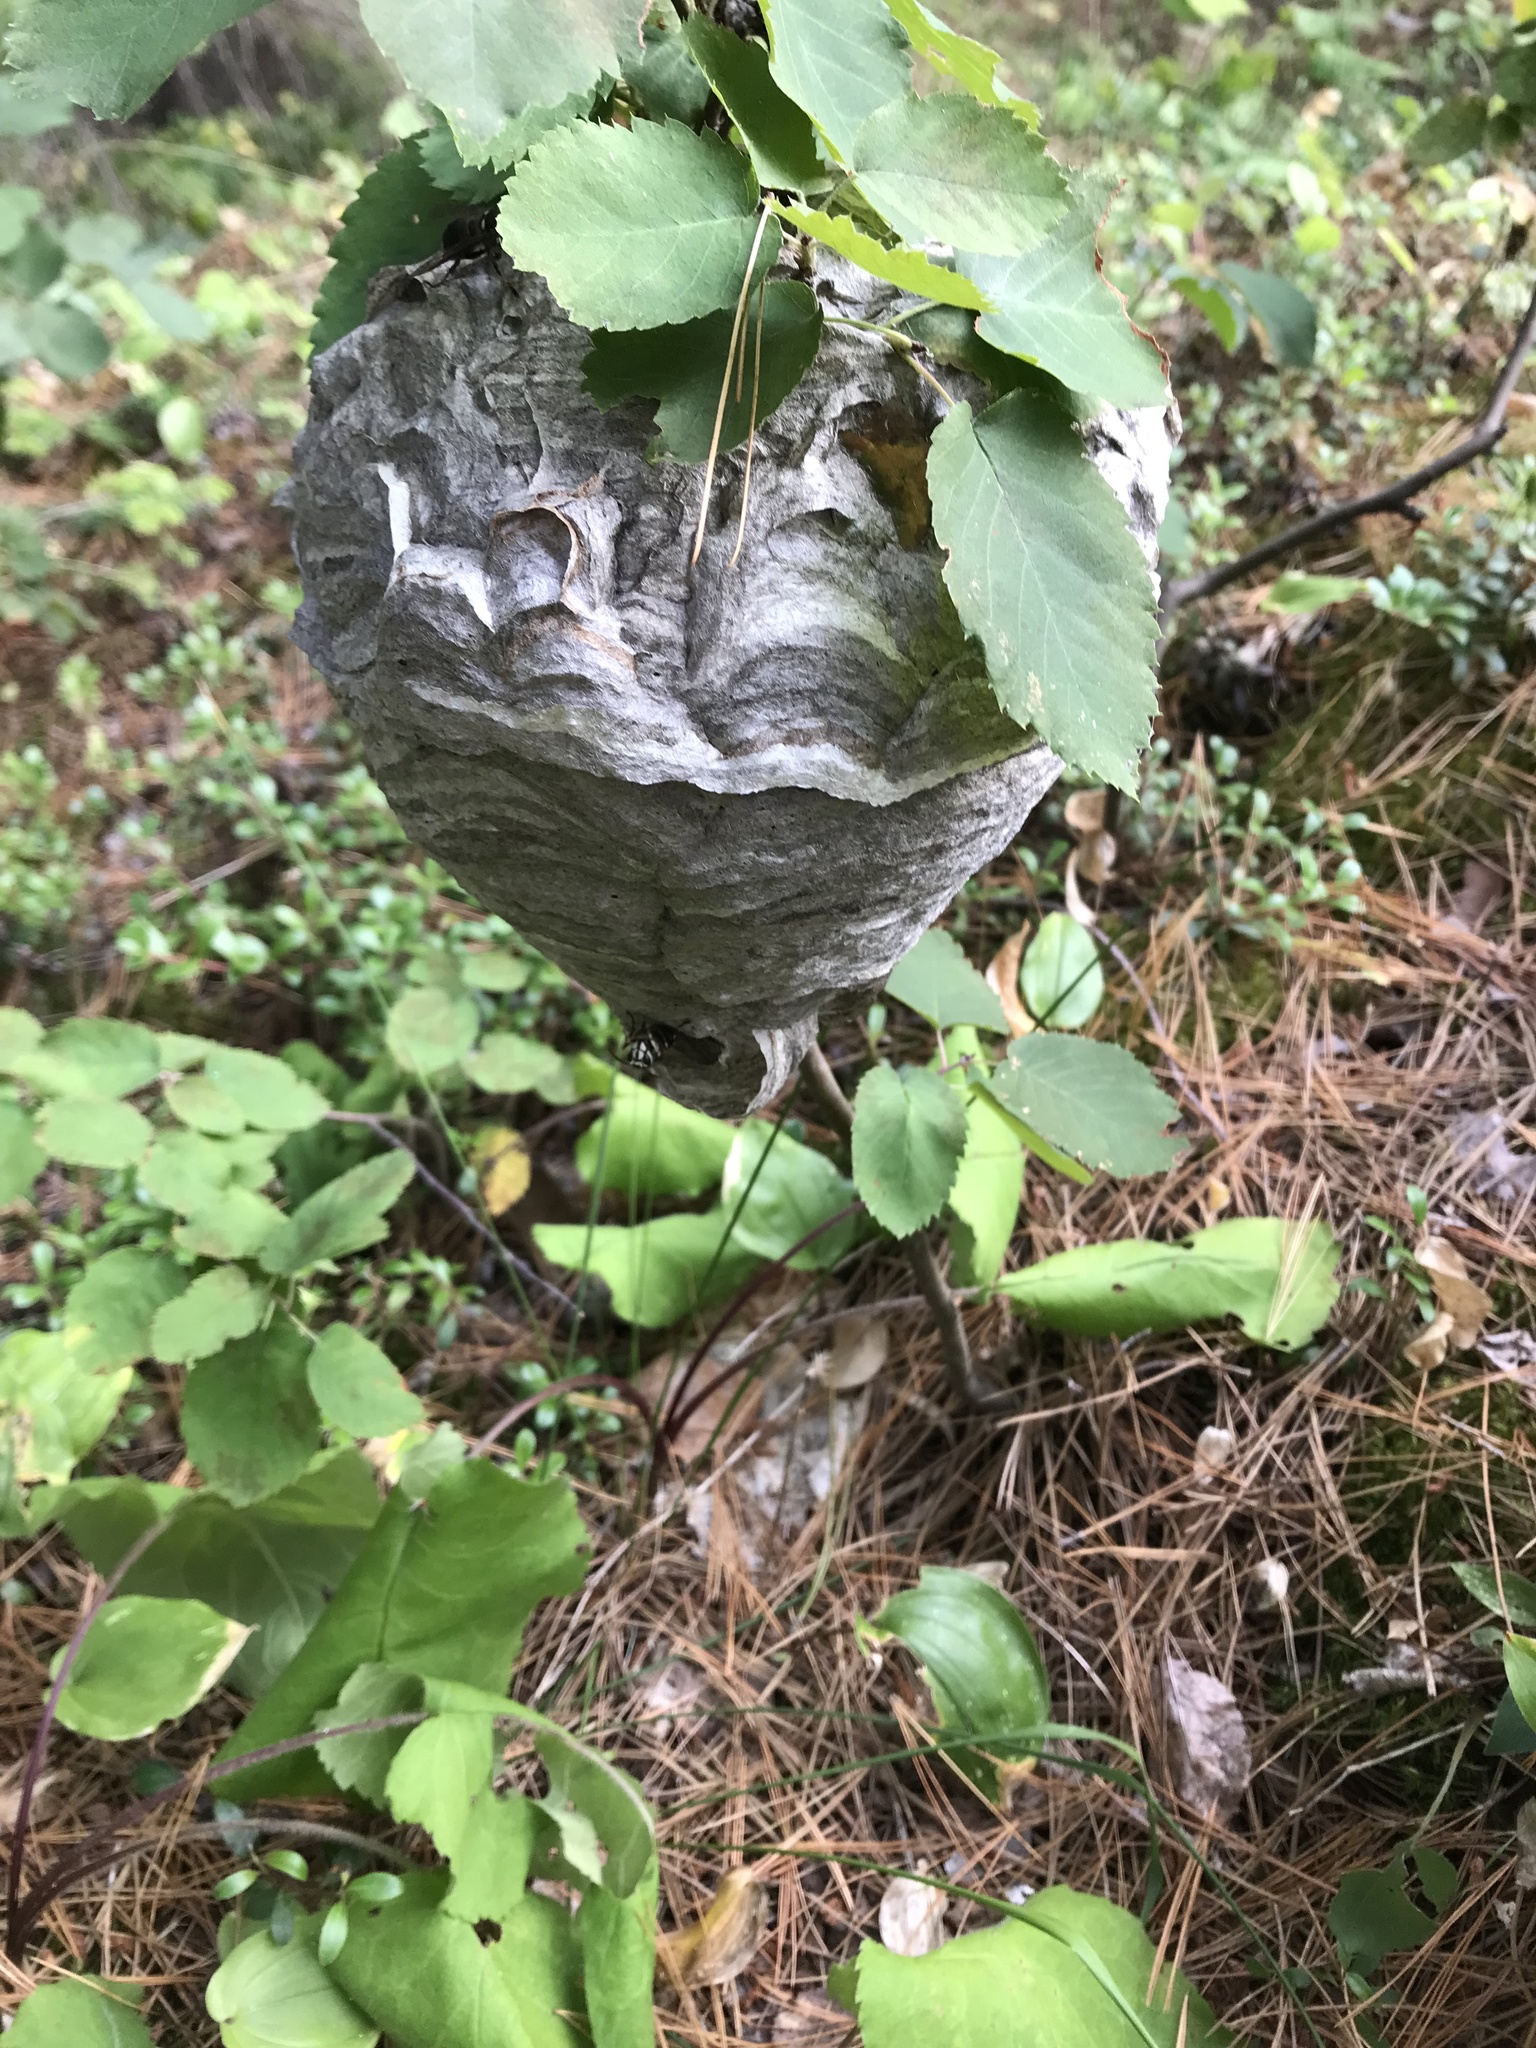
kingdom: Animalia
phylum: Arthropoda
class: Insecta
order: Hymenoptera
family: Vespidae
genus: Dolichovespula
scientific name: Dolichovespula maculata
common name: Bald-faced hornet
